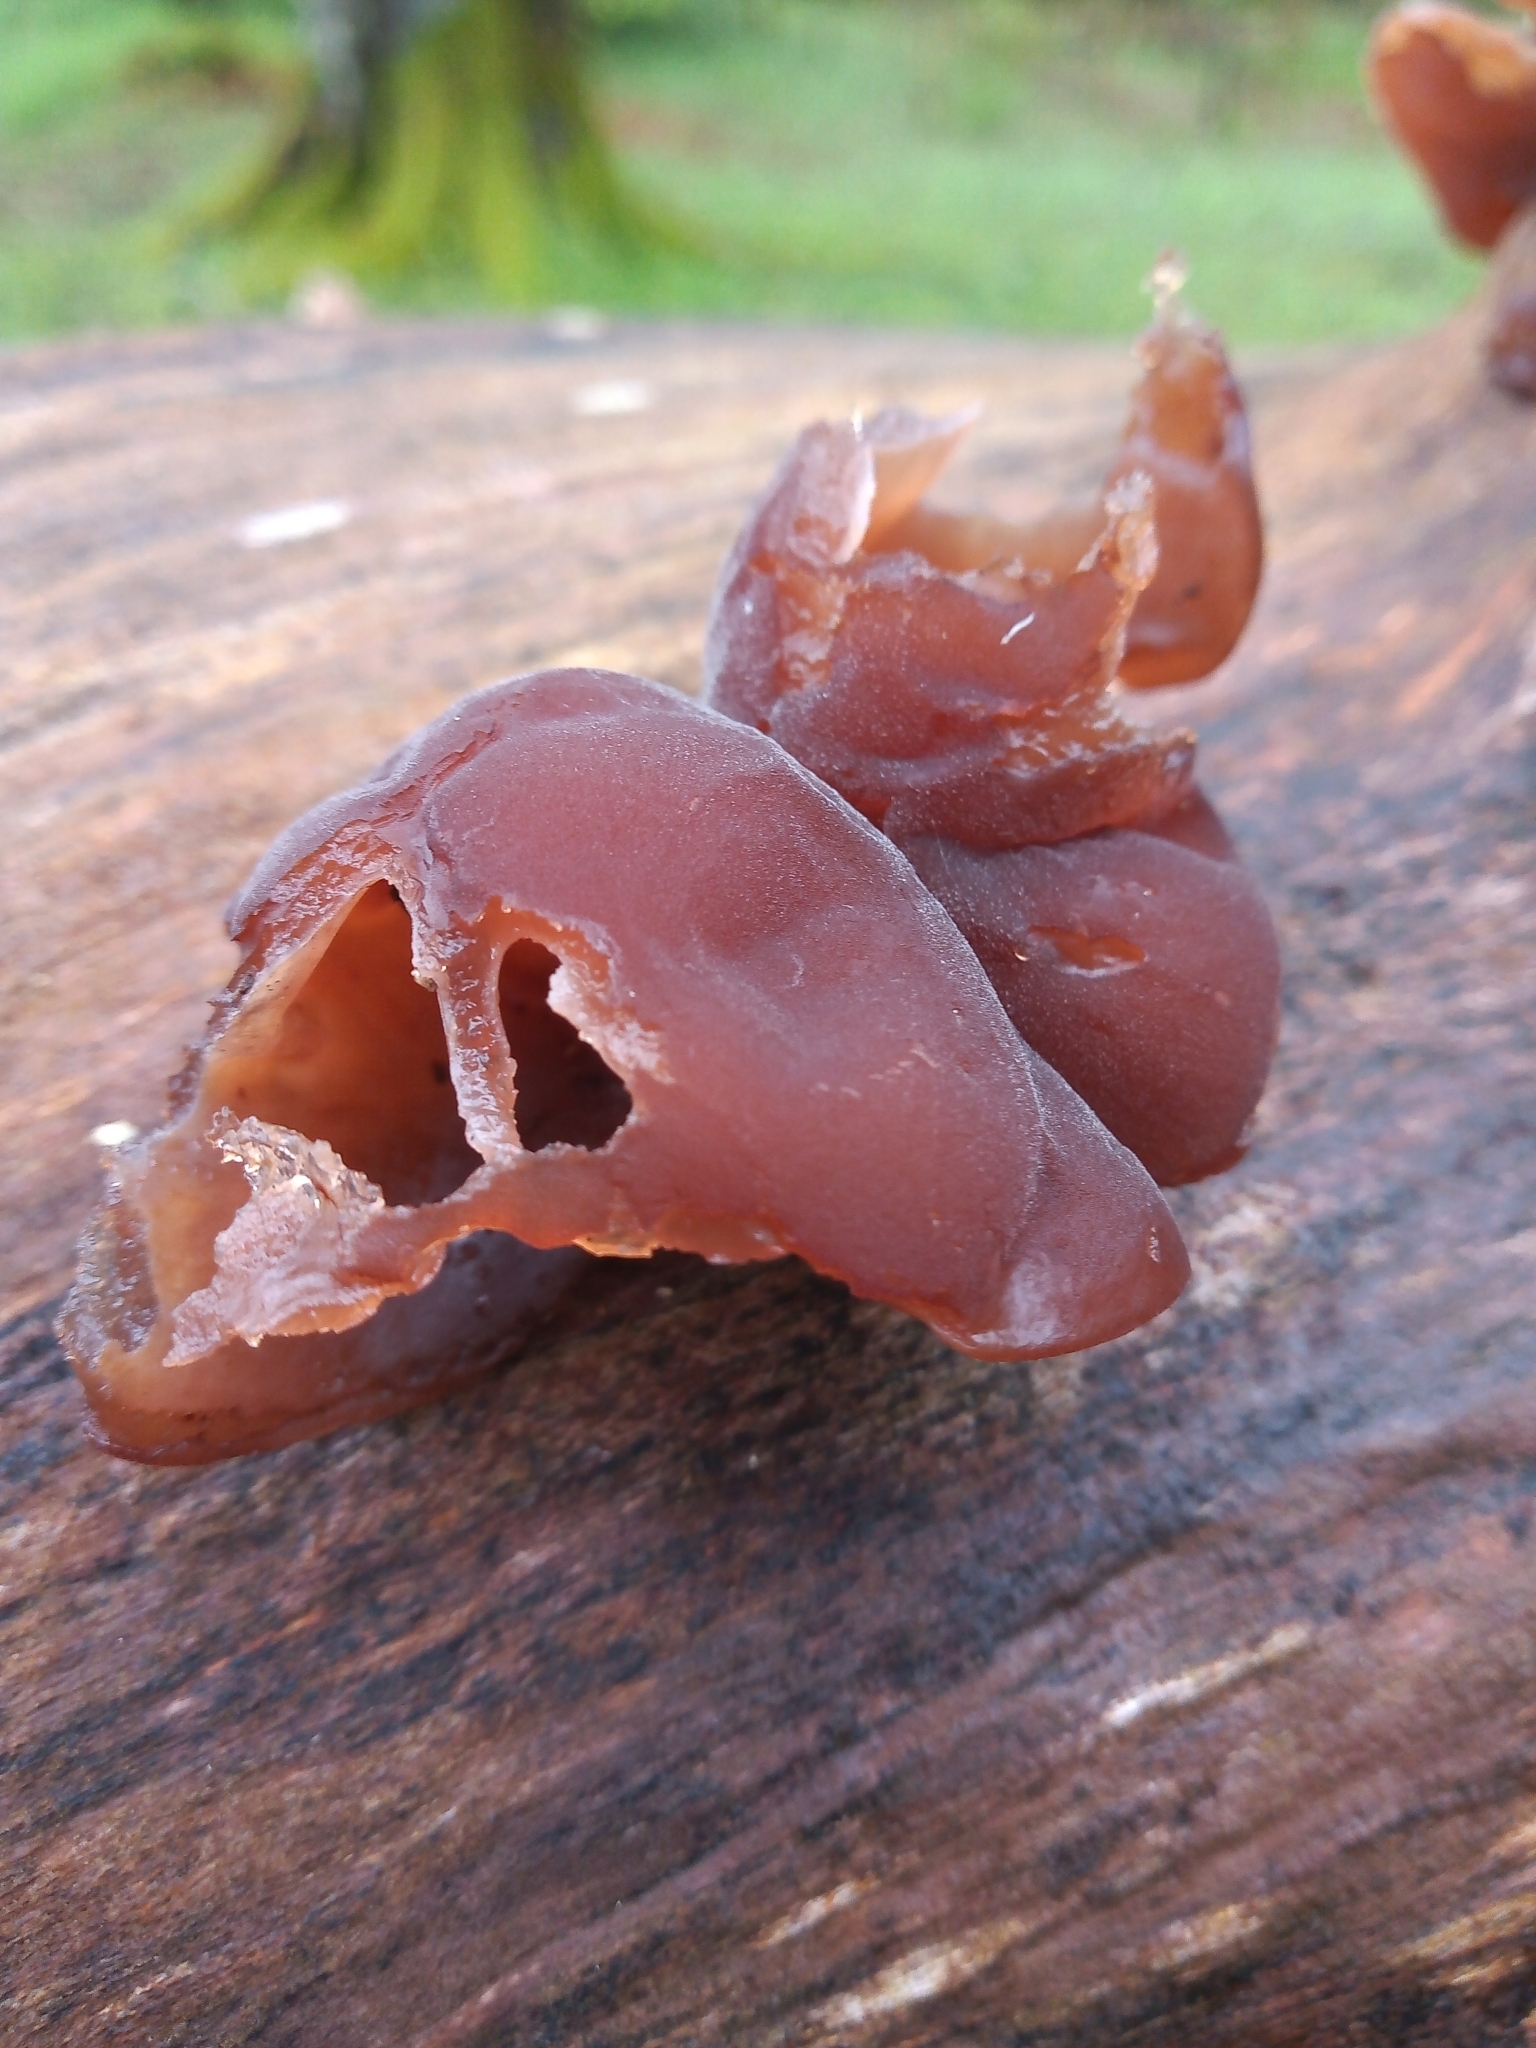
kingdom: Fungi
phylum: Basidiomycota
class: Agaricomycetes
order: Auriculariales
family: Auriculariaceae
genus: Auricularia
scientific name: Auricularia auricula-judae
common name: Jelly ear
